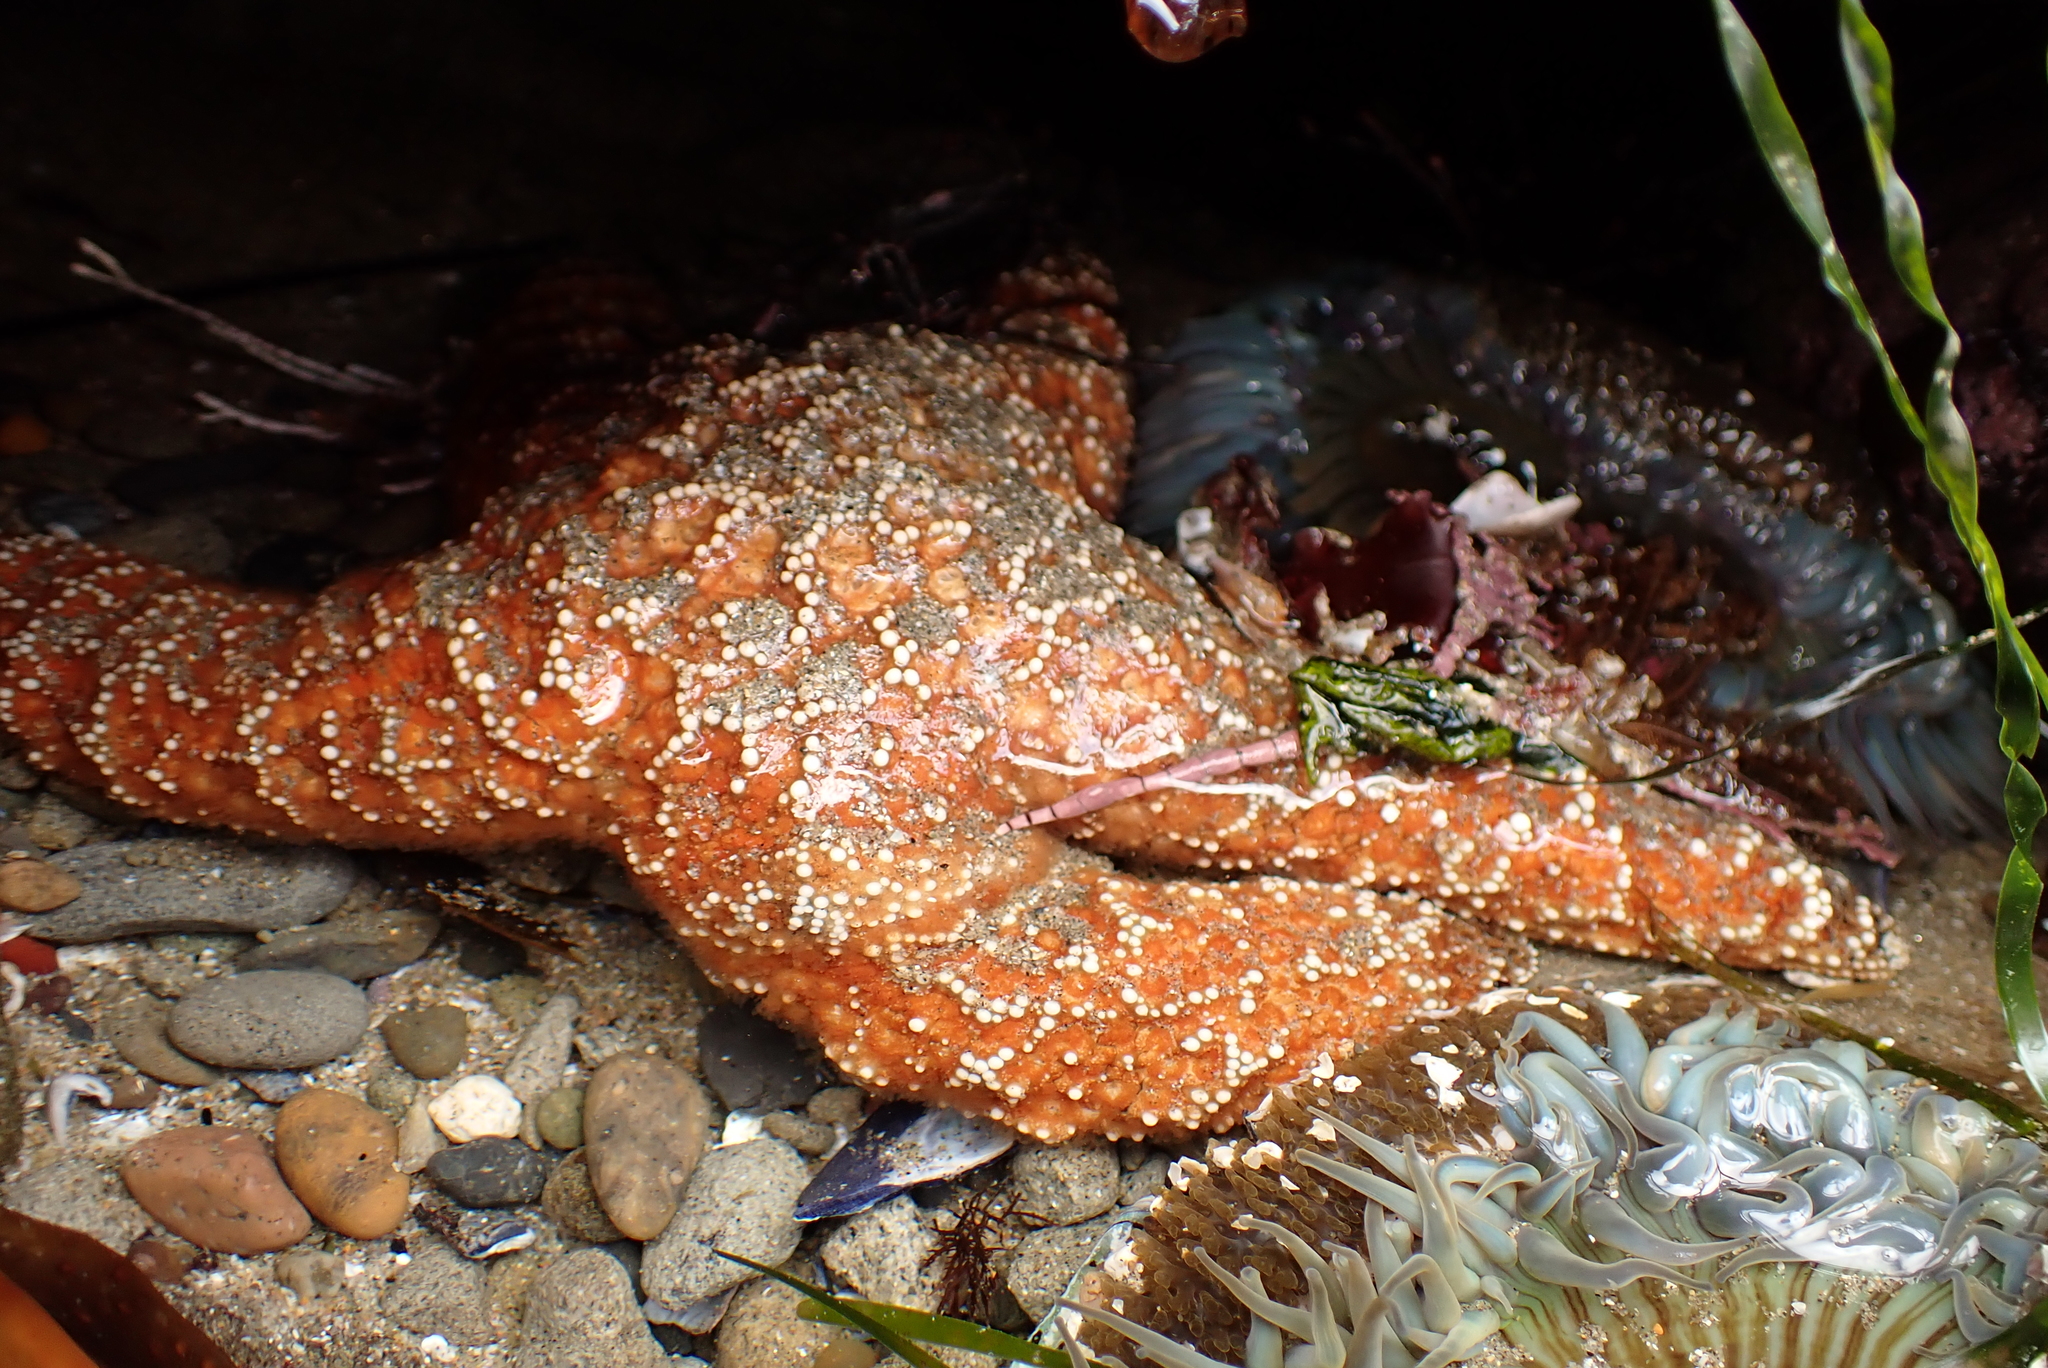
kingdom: Animalia
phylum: Echinodermata
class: Asteroidea
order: Forcipulatida
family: Asteriidae
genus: Pisaster
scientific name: Pisaster ochraceus
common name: Ochre stars
